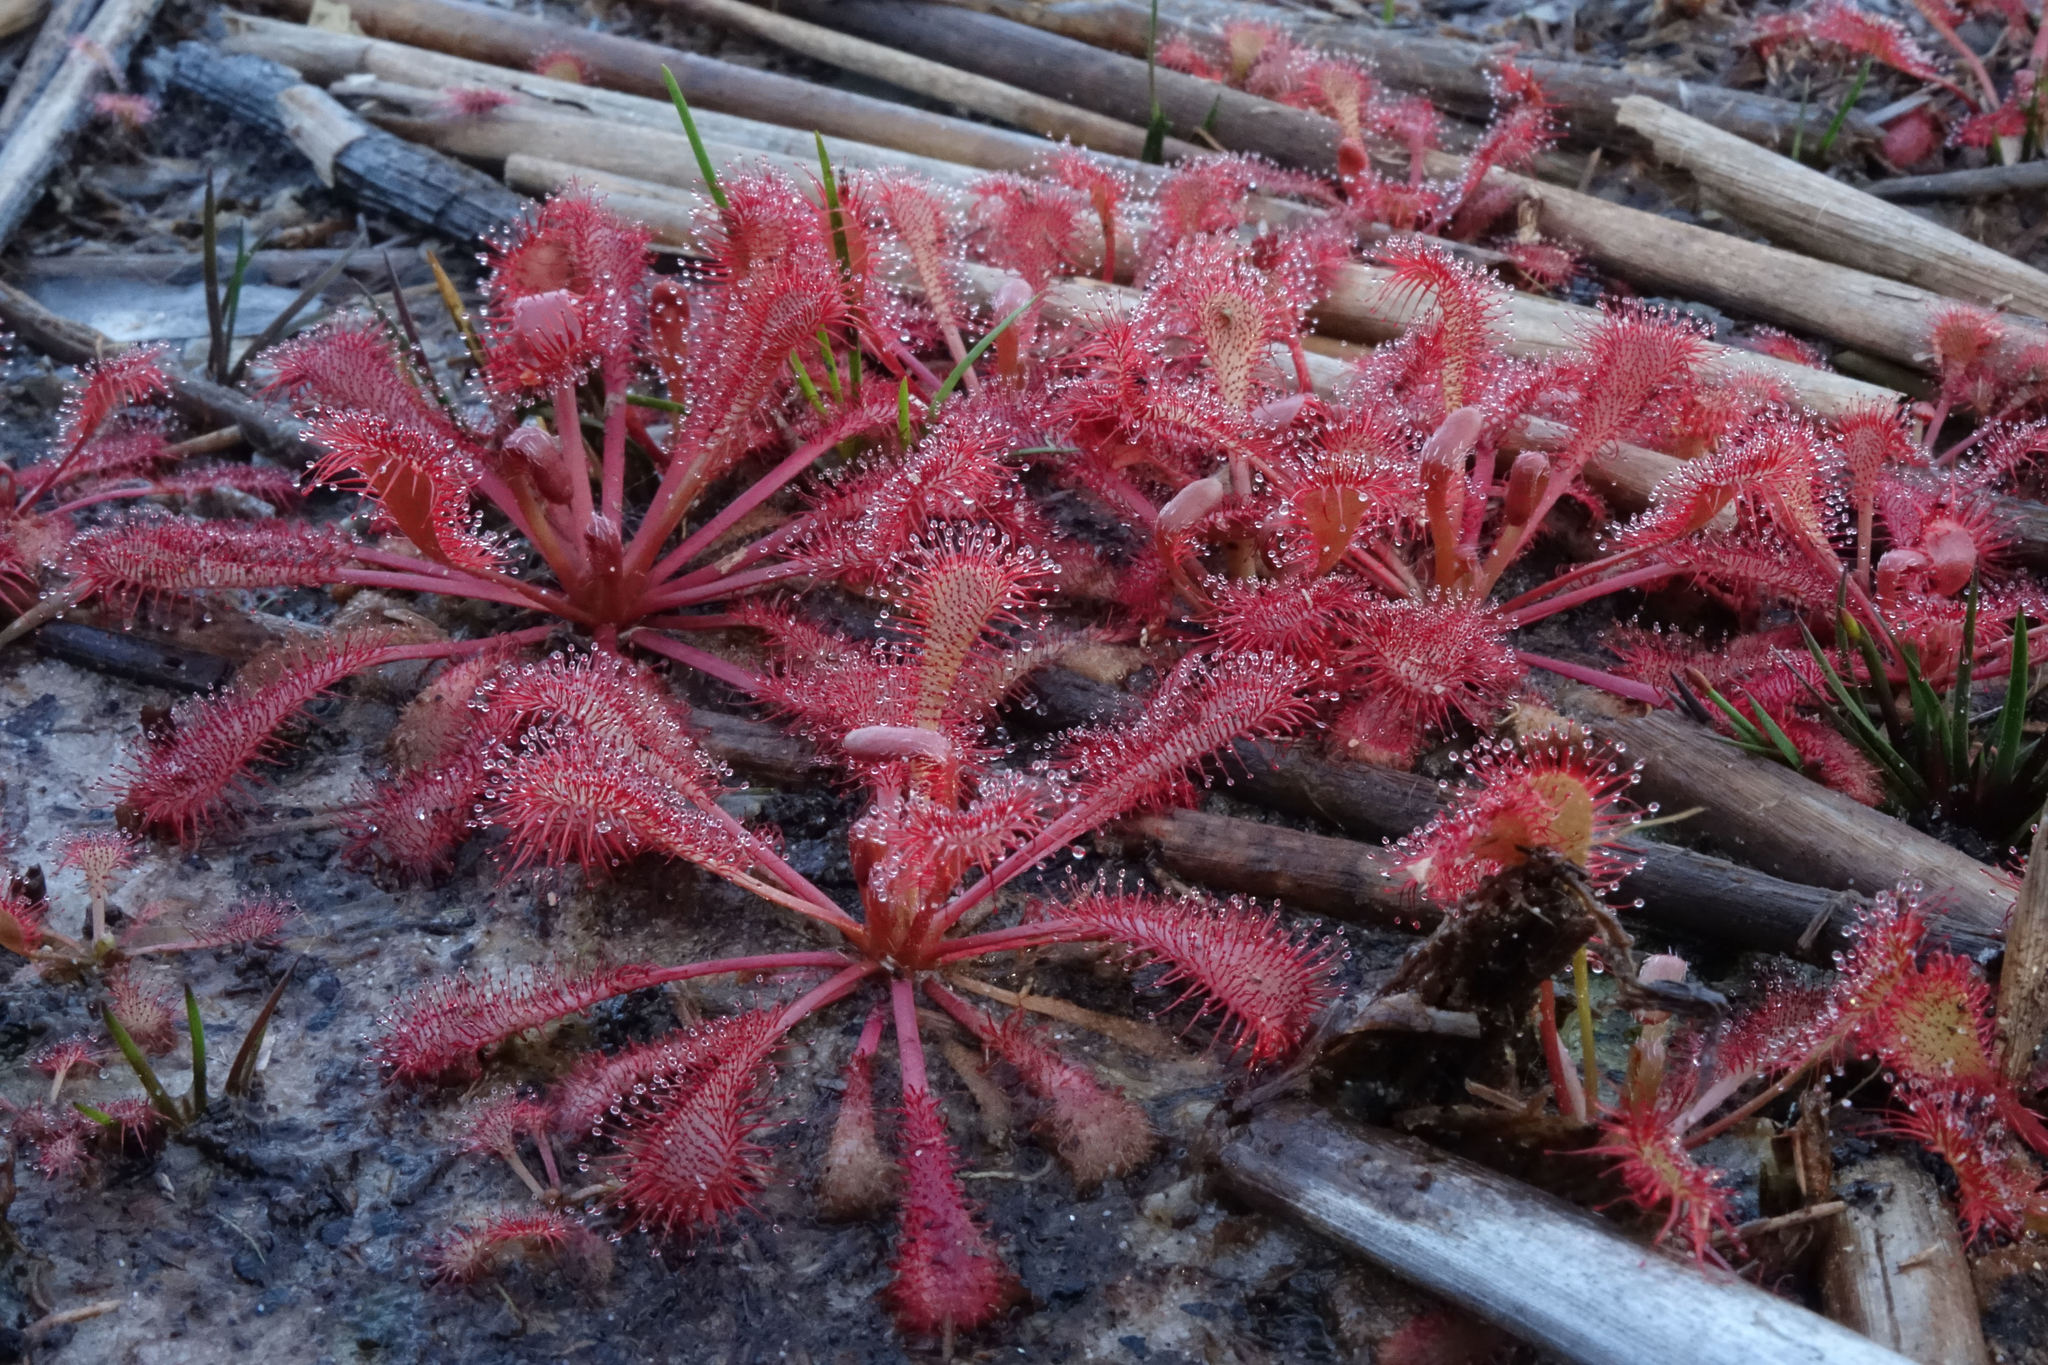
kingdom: Plantae
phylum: Tracheophyta
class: Magnoliopsida
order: Caryophyllales
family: Droseraceae
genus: Drosera
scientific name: Drosera spatulata
